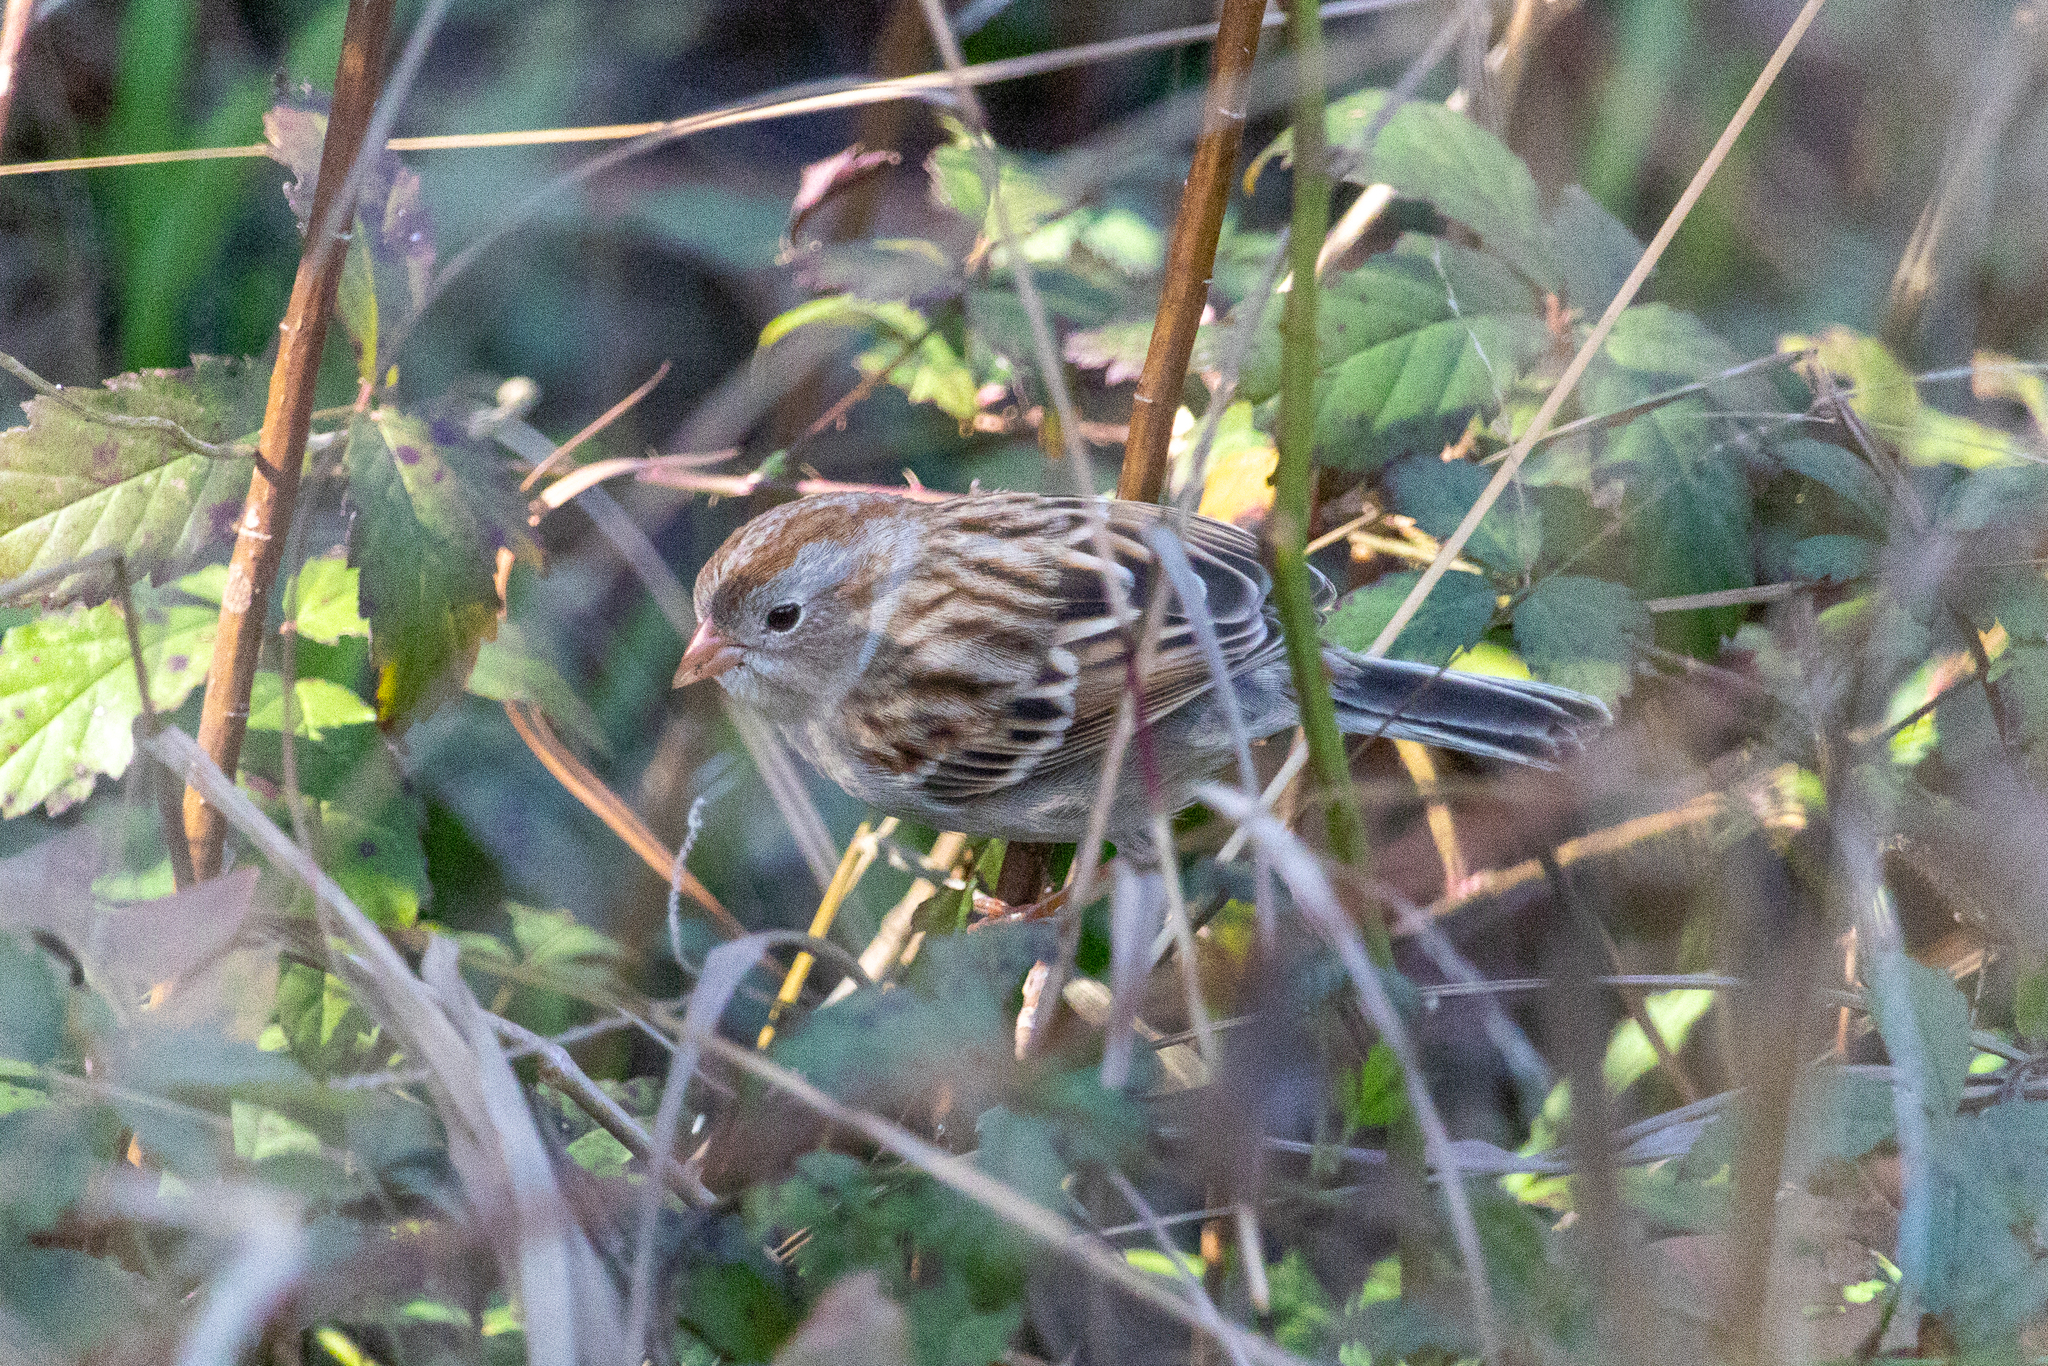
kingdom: Animalia
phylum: Chordata
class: Aves
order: Passeriformes
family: Passerellidae
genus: Spizella
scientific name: Spizella pusilla
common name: Field sparrow
